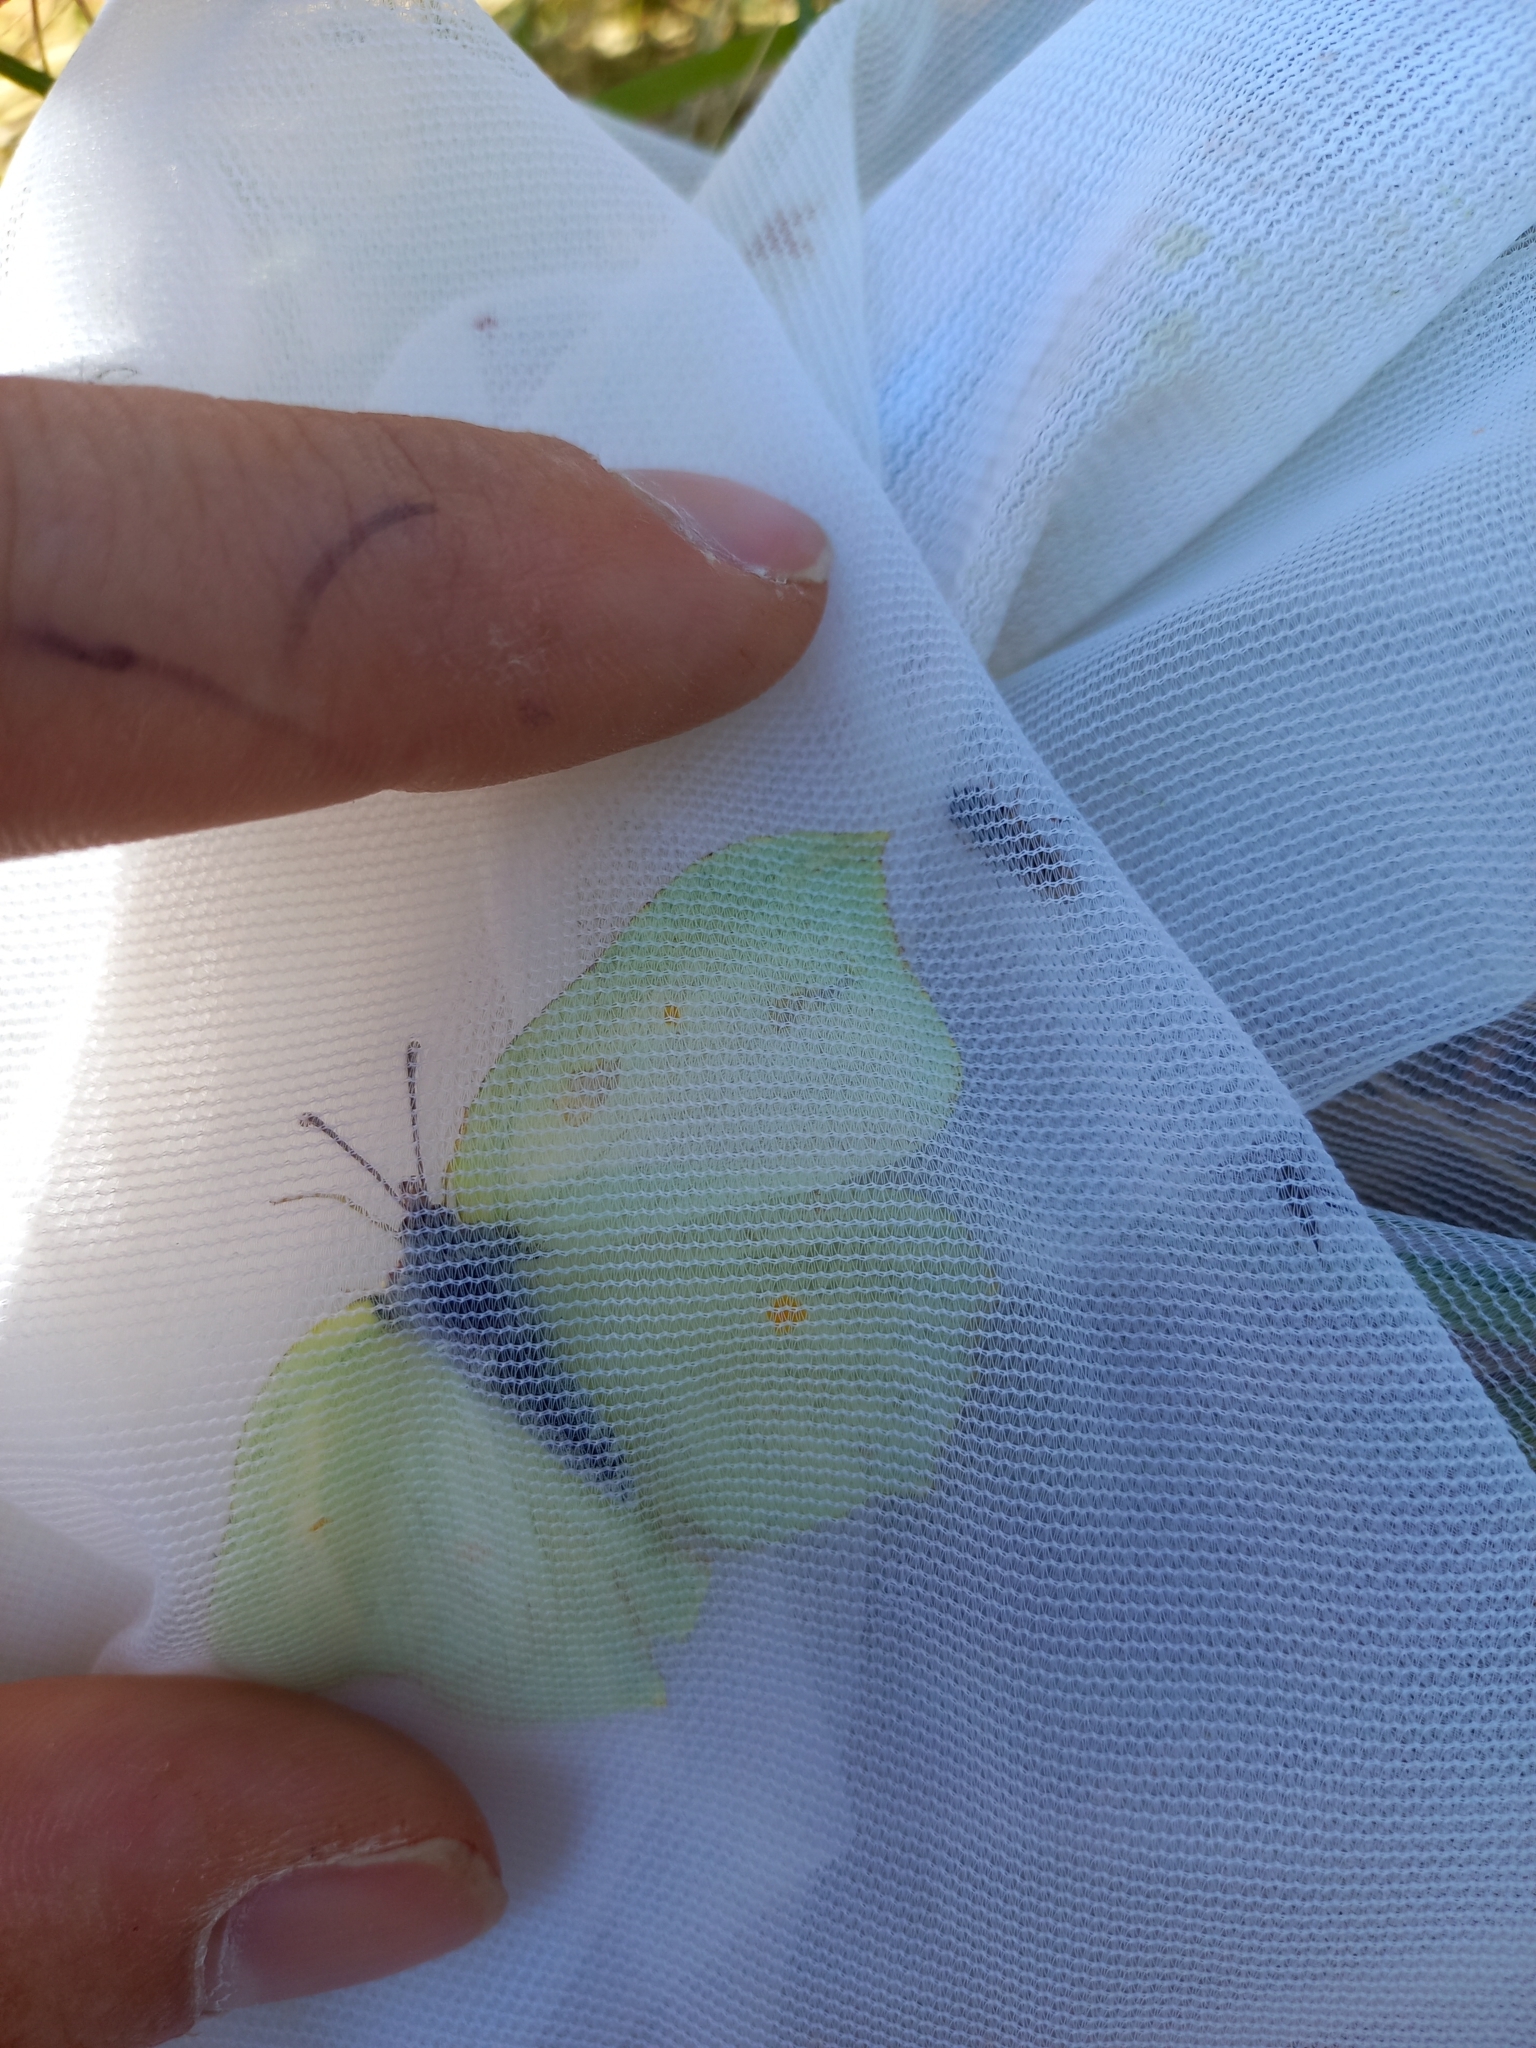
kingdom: Animalia
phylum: Arthropoda
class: Insecta
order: Lepidoptera
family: Pieridae
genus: Gonepteryx
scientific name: Gonepteryx rhamni
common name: Brimstone
